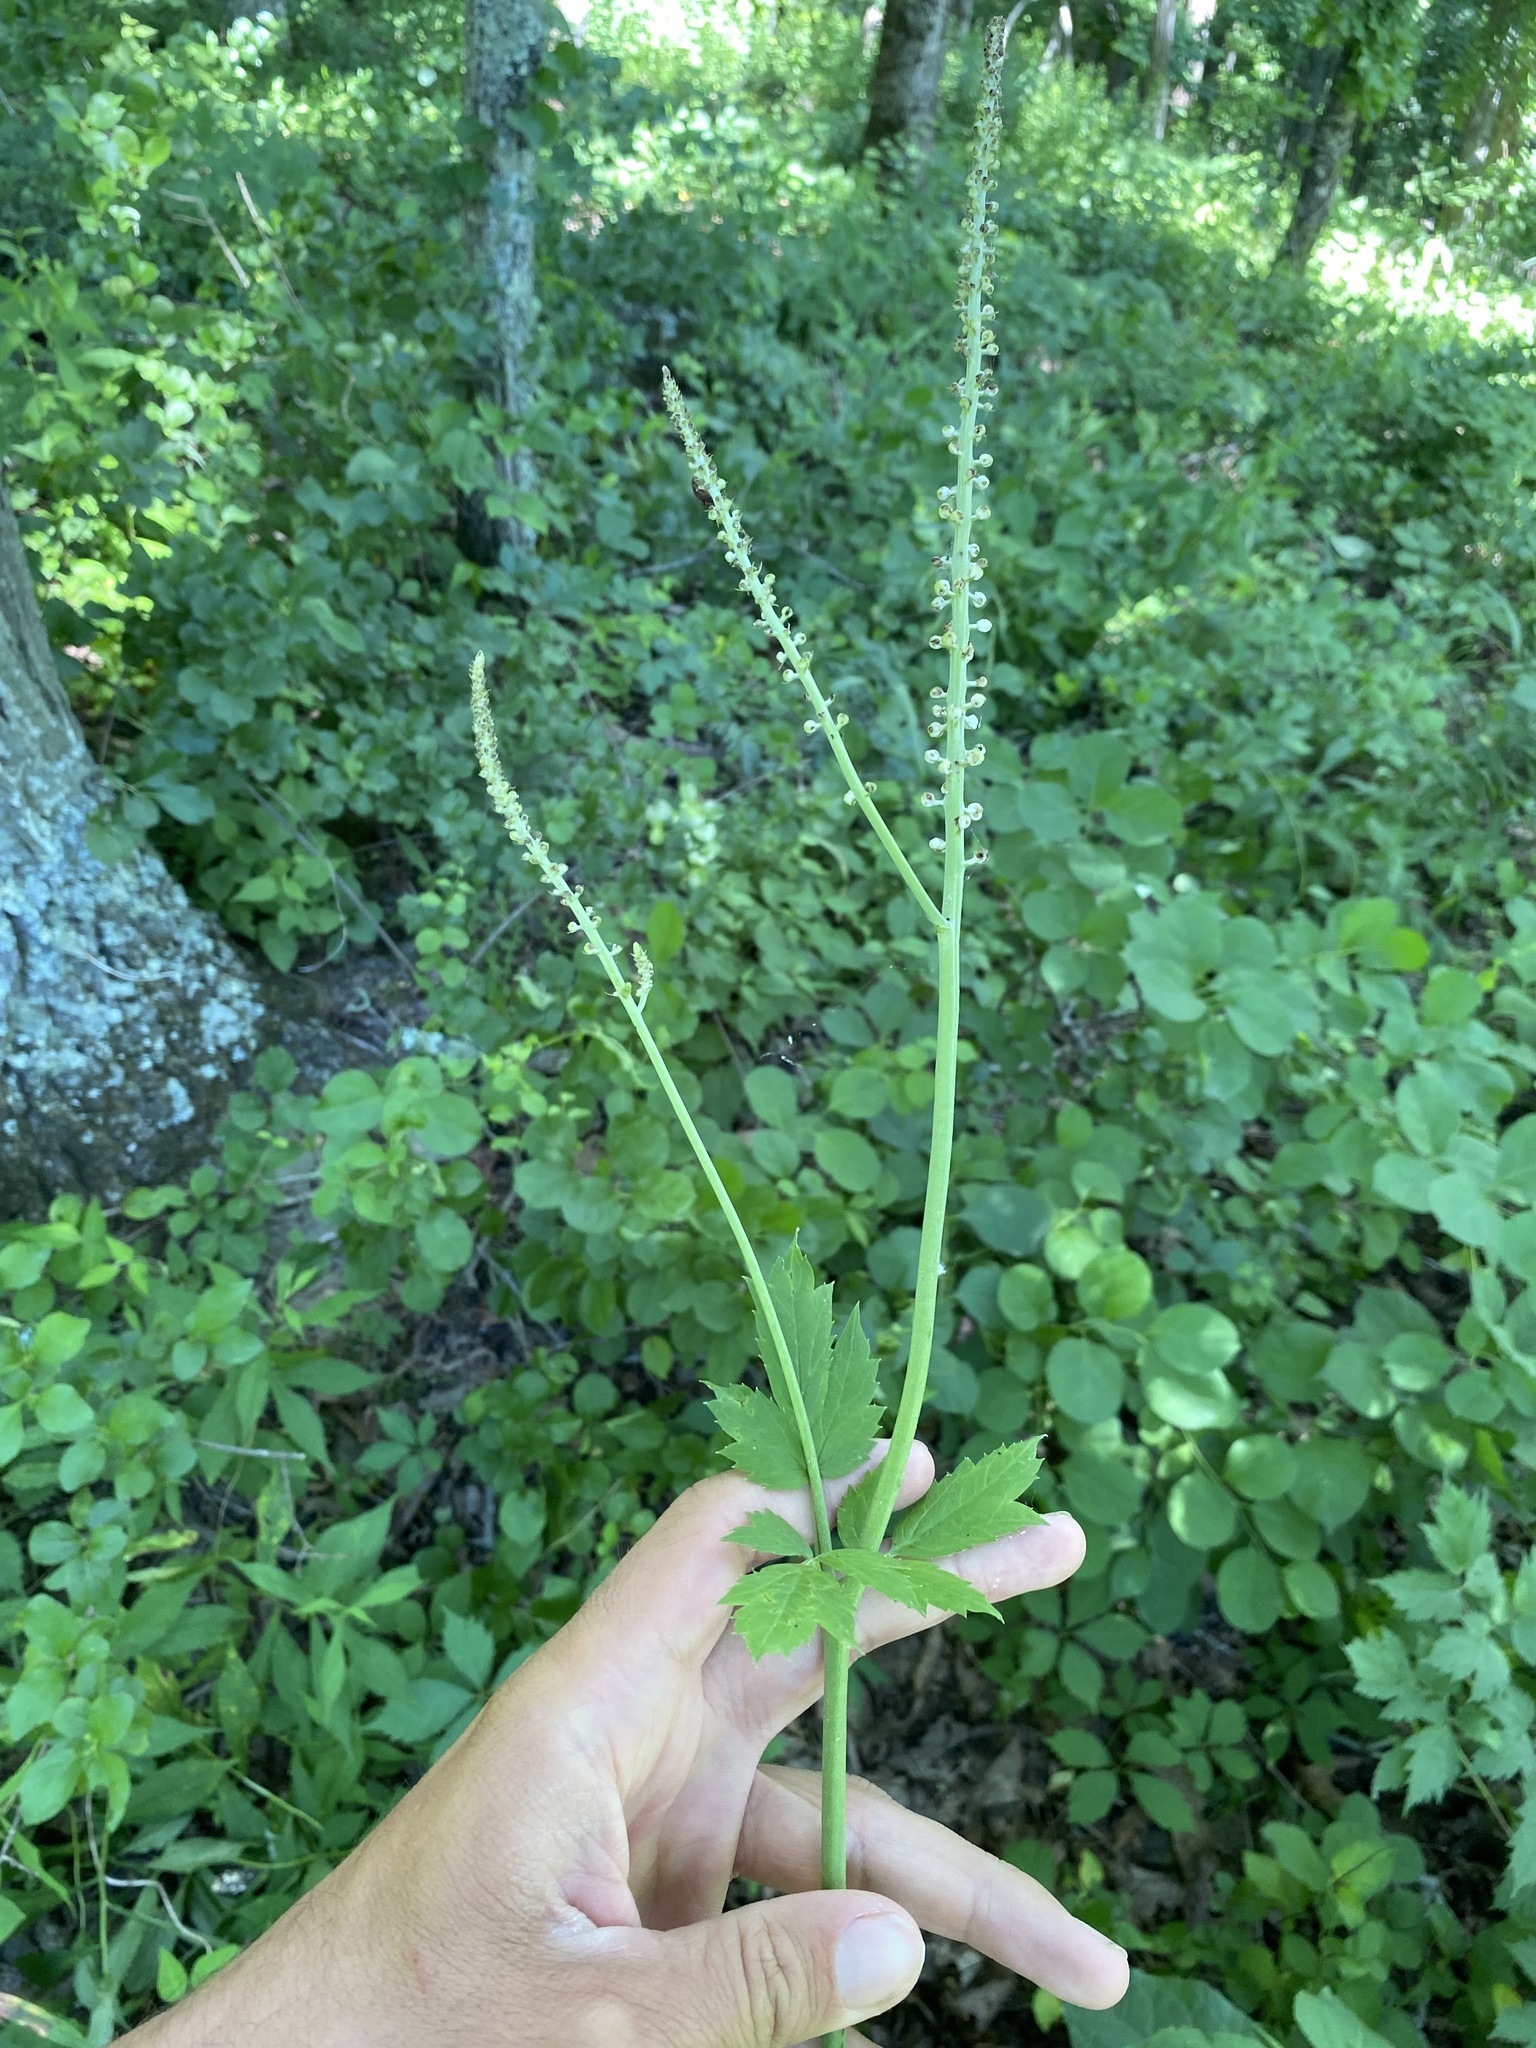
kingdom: Plantae
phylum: Tracheophyta
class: Magnoliopsida
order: Ranunculales
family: Ranunculaceae
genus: Actaea
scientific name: Actaea racemosa
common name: Black cohosh
